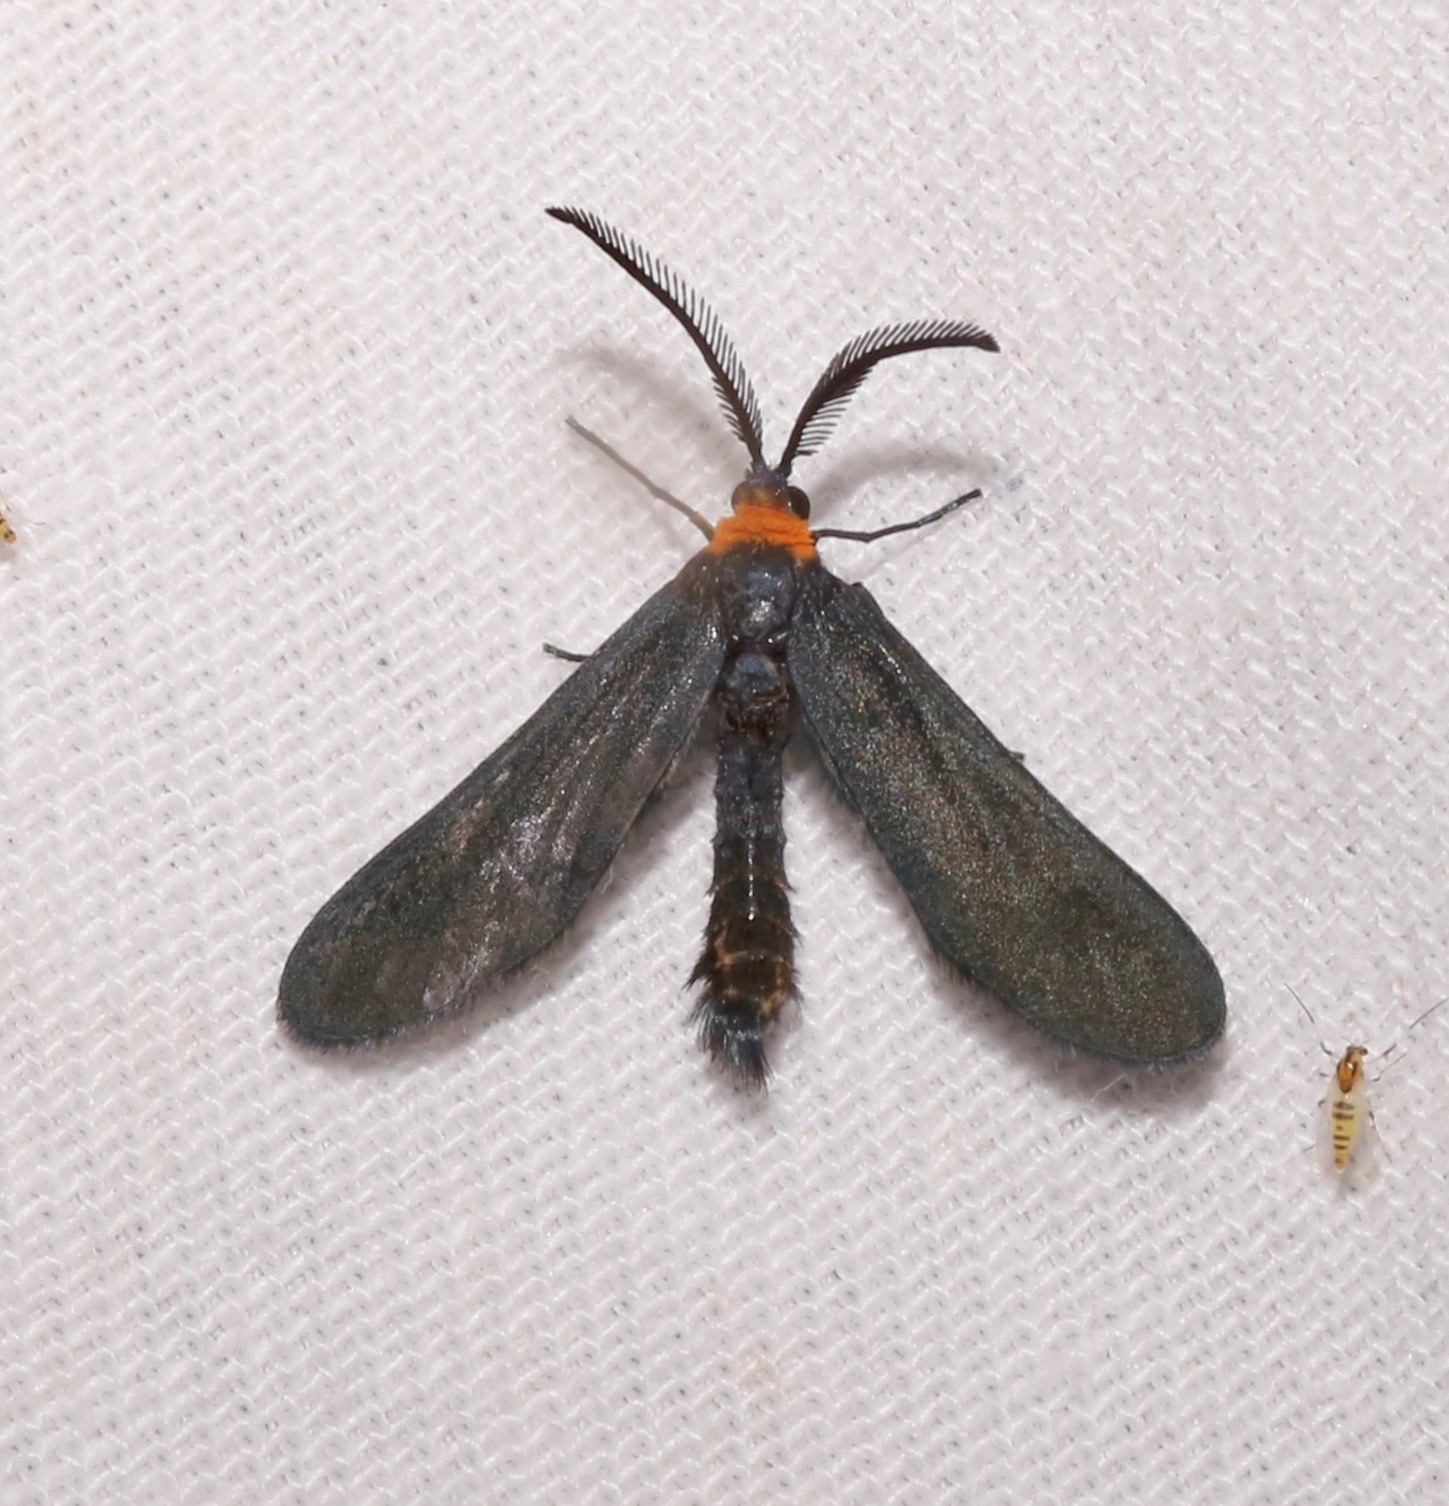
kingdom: Animalia
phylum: Arthropoda
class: Insecta
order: Lepidoptera
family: Zygaenidae
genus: Harrisina
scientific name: Harrisina americana
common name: Grapeleaf skeletonizer moth
